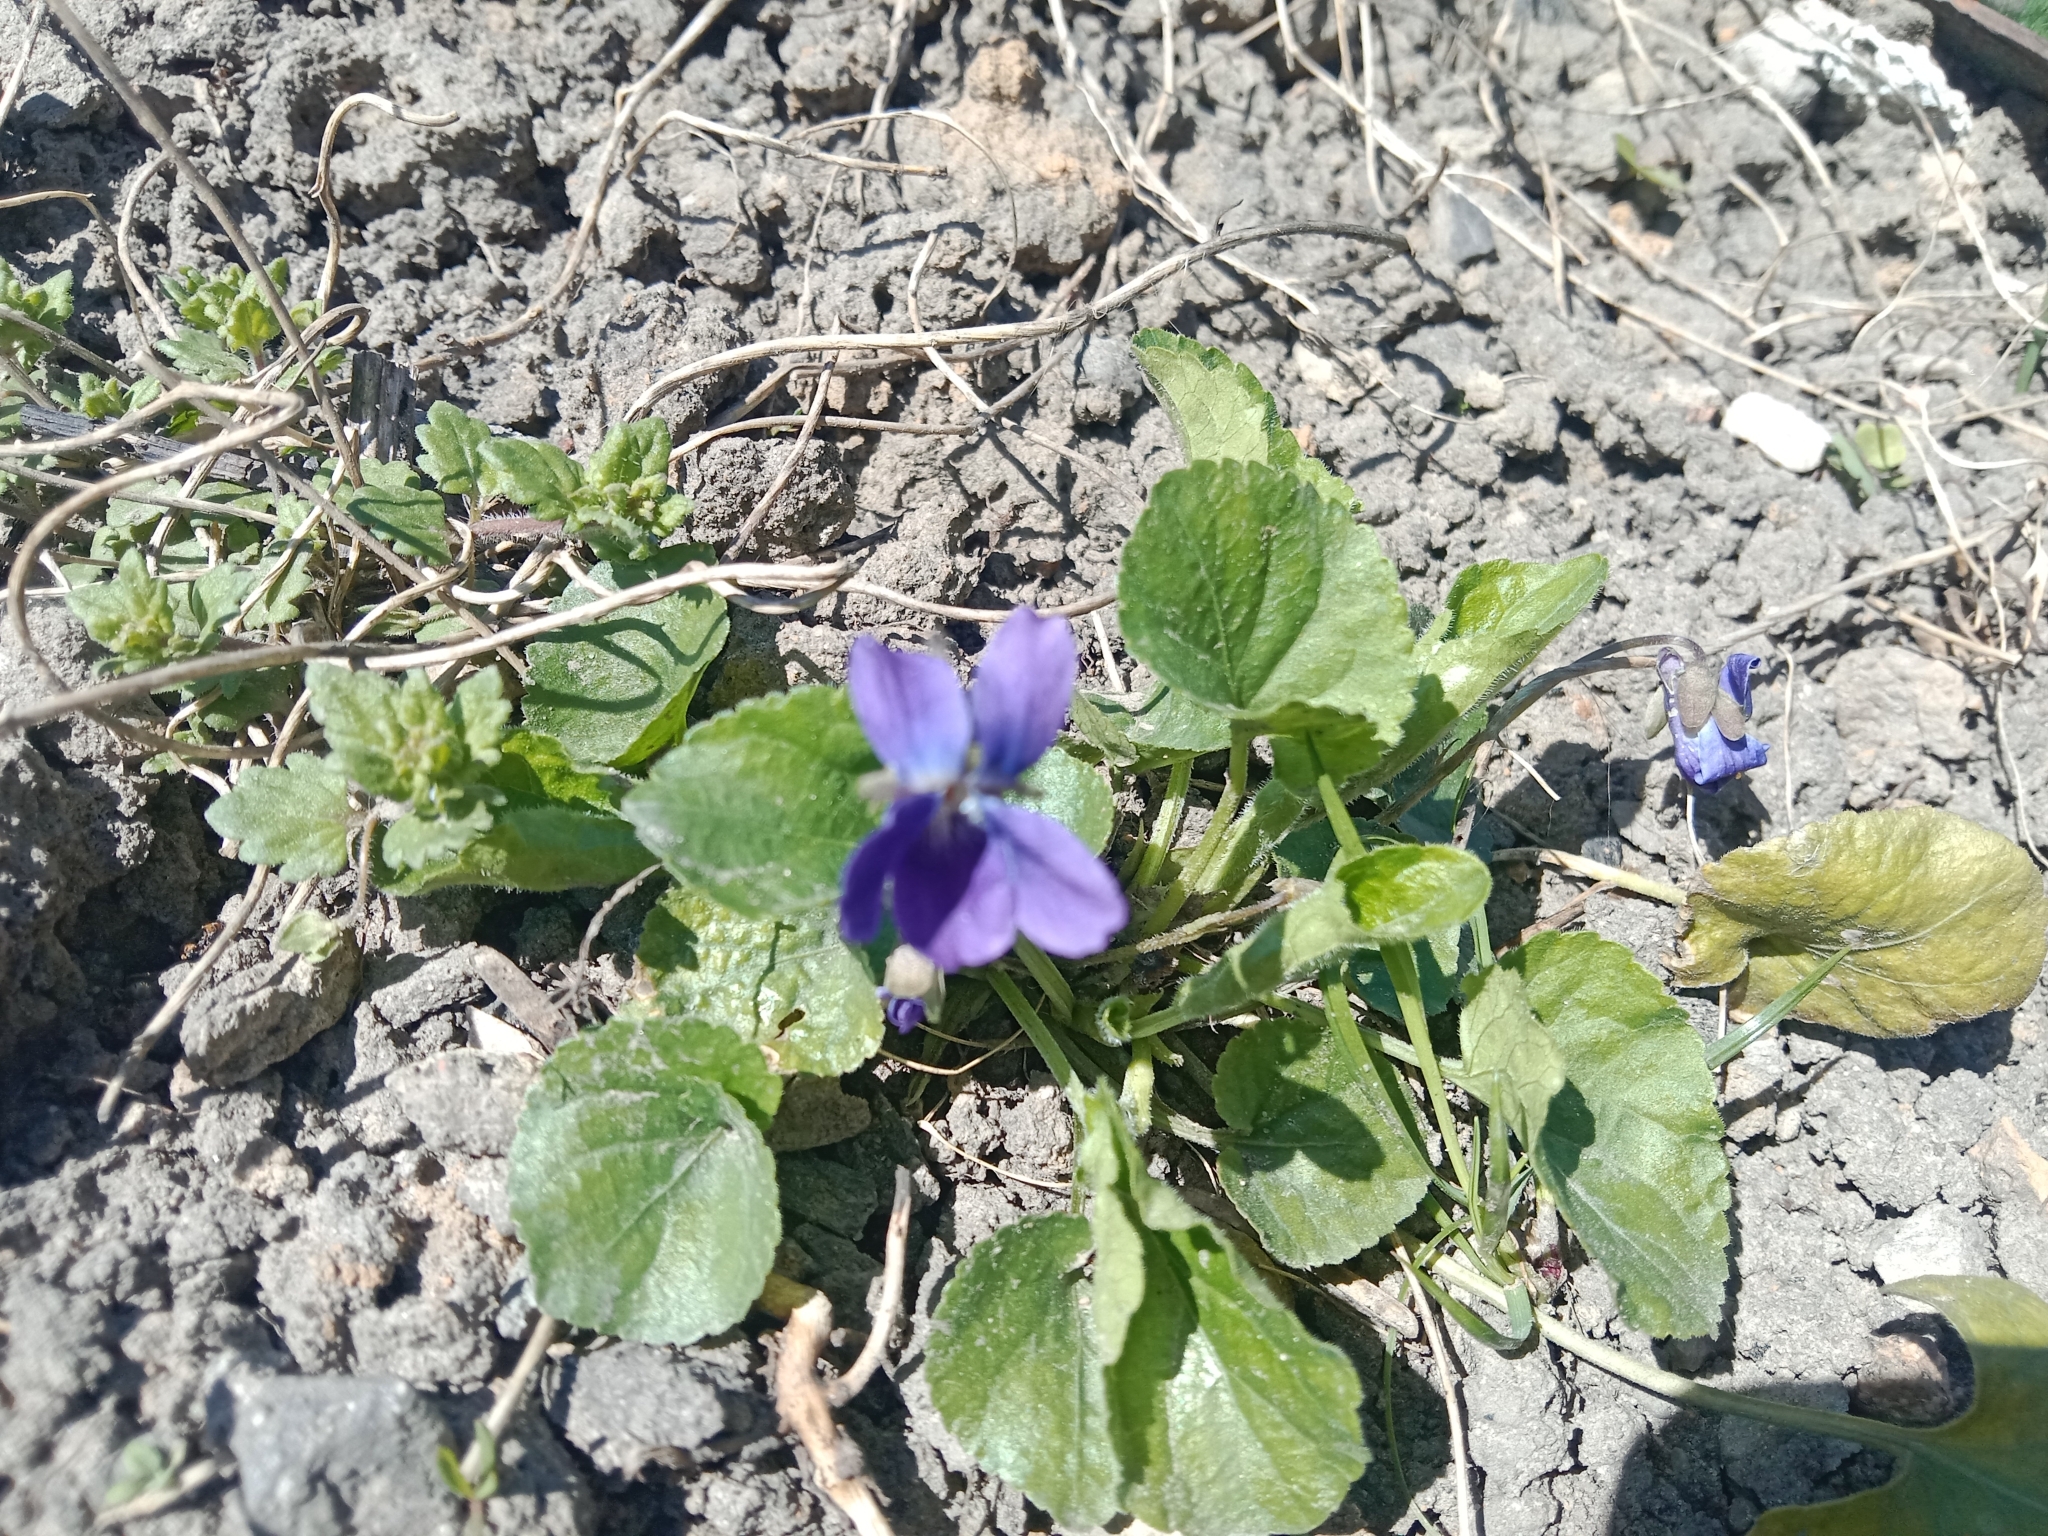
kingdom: Plantae
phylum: Tracheophyta
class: Magnoliopsida
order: Malpighiales
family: Violaceae
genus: Viola
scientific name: Viola odorata
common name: Sweet violet
